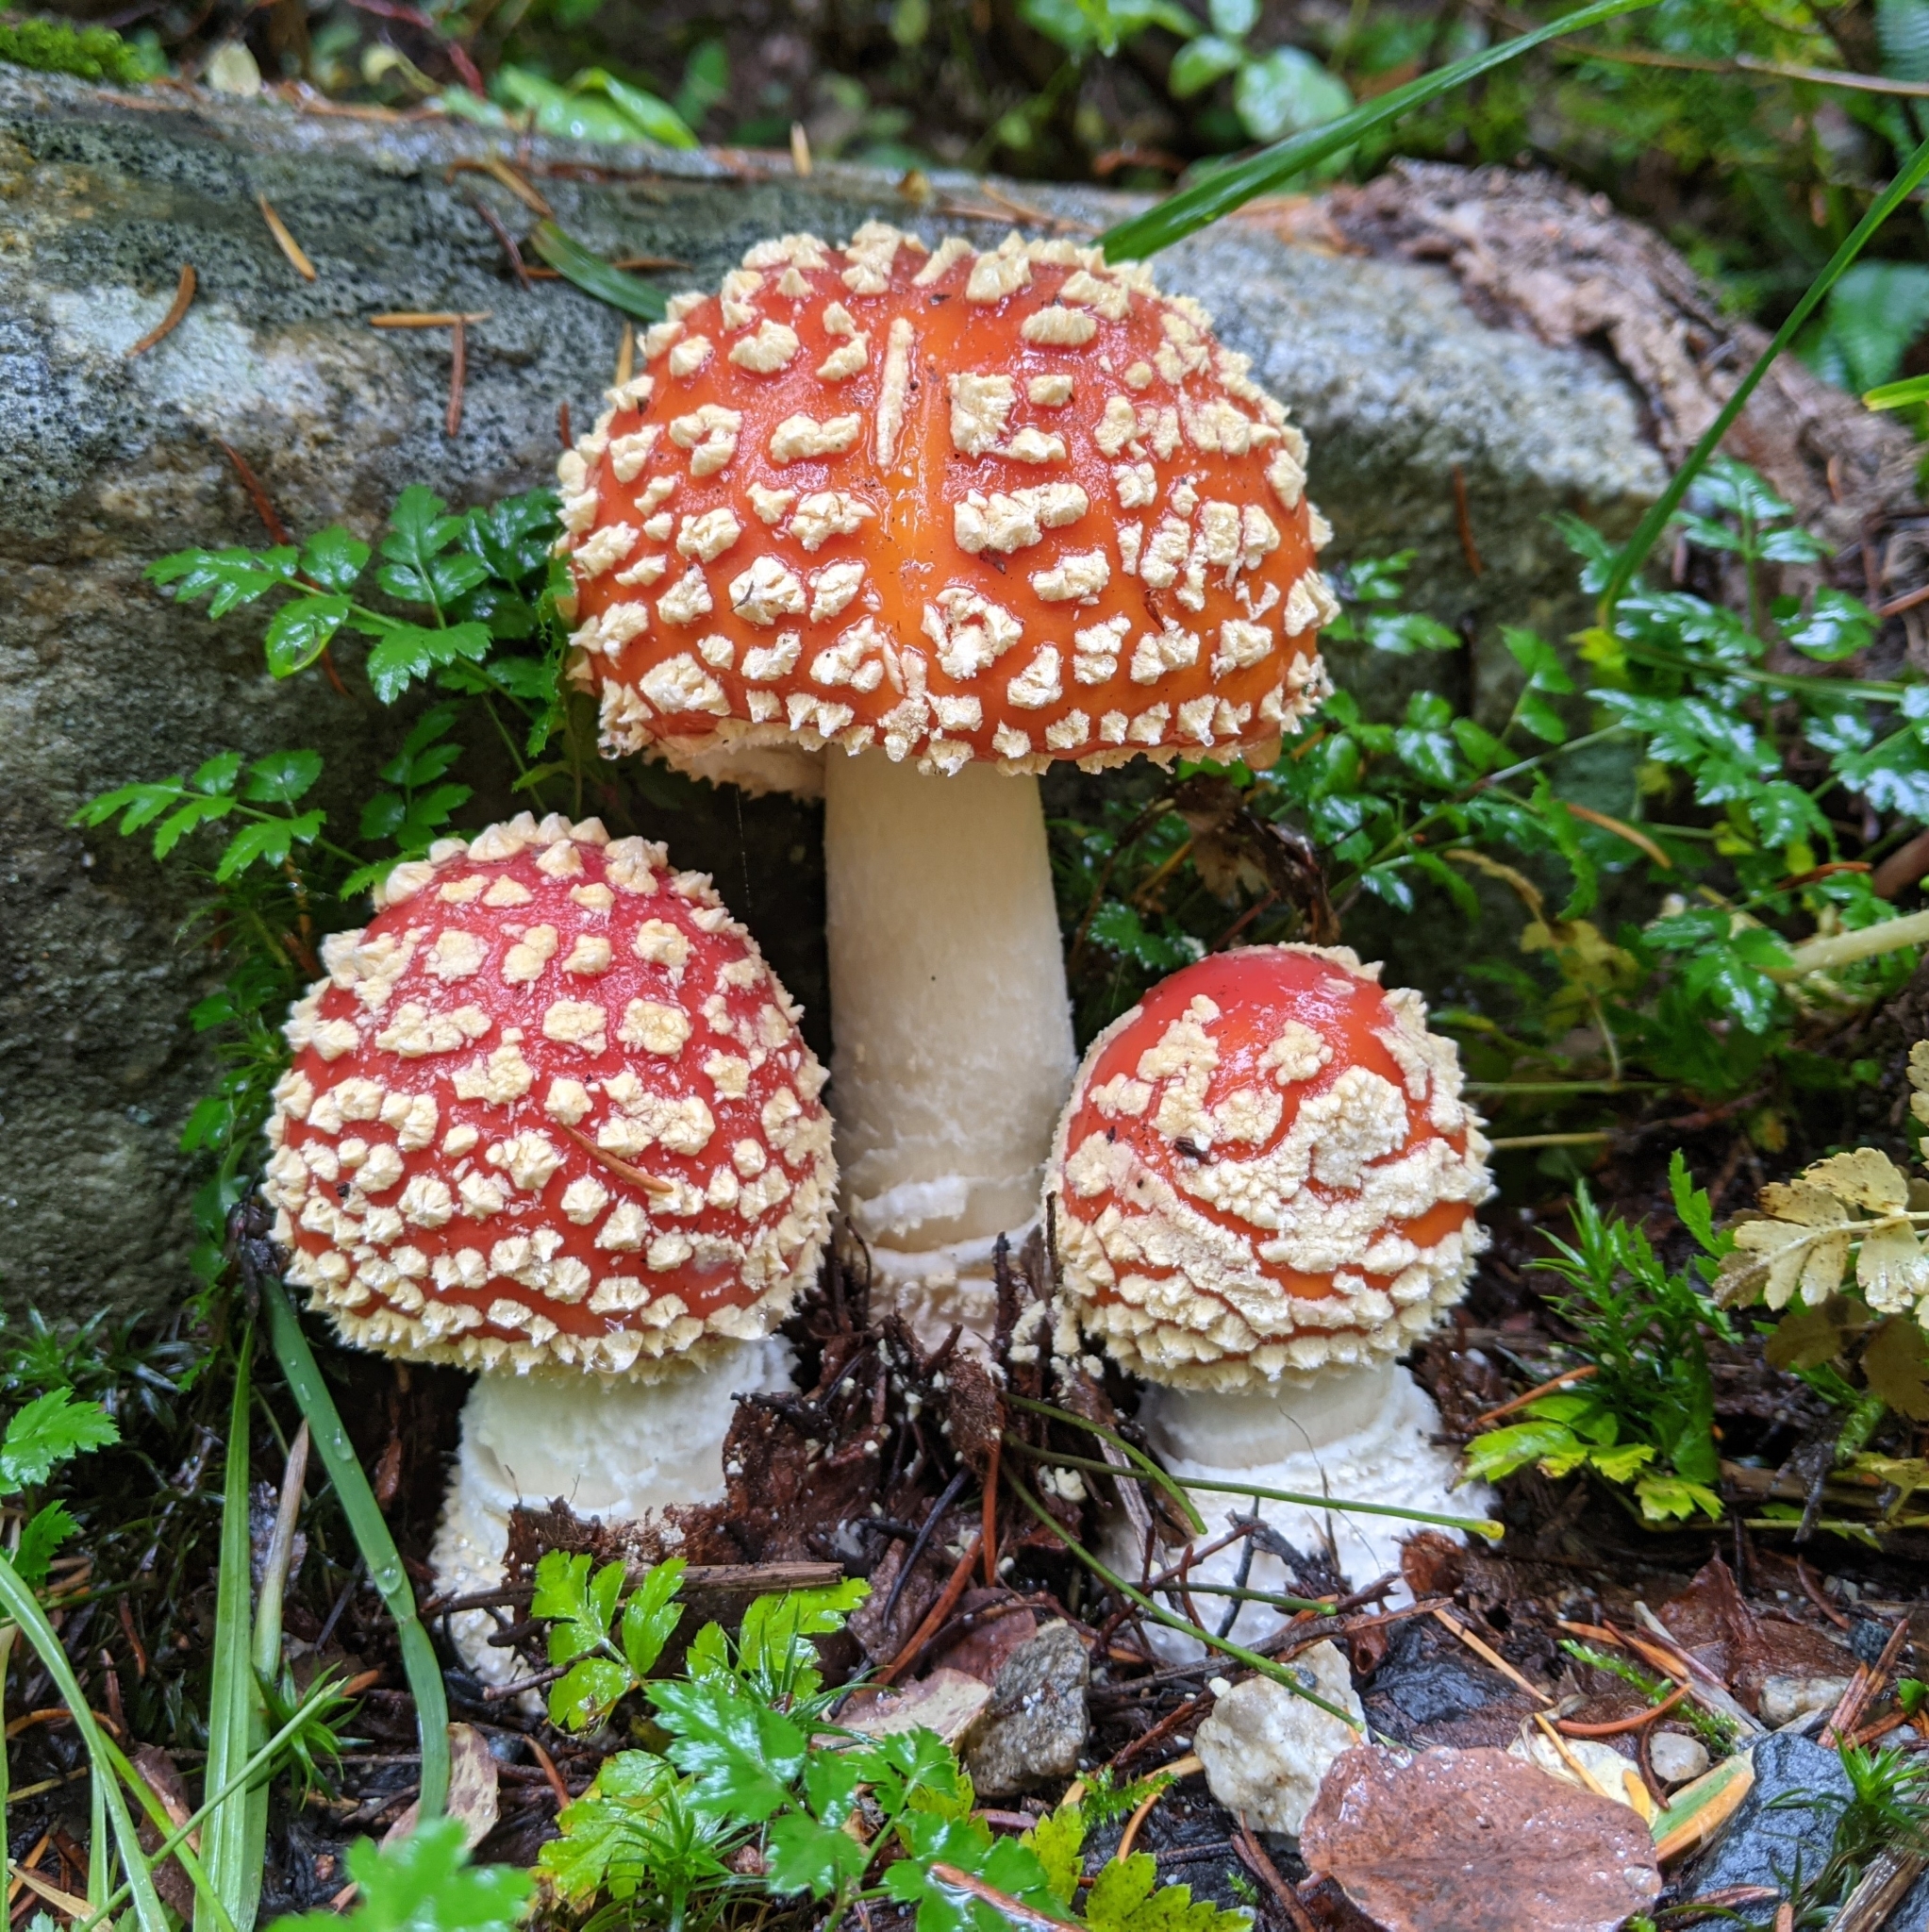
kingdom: Fungi
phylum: Basidiomycota
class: Agaricomycetes
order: Agaricales
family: Amanitaceae
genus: Amanita
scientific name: Amanita muscaria
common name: Fly agaric
